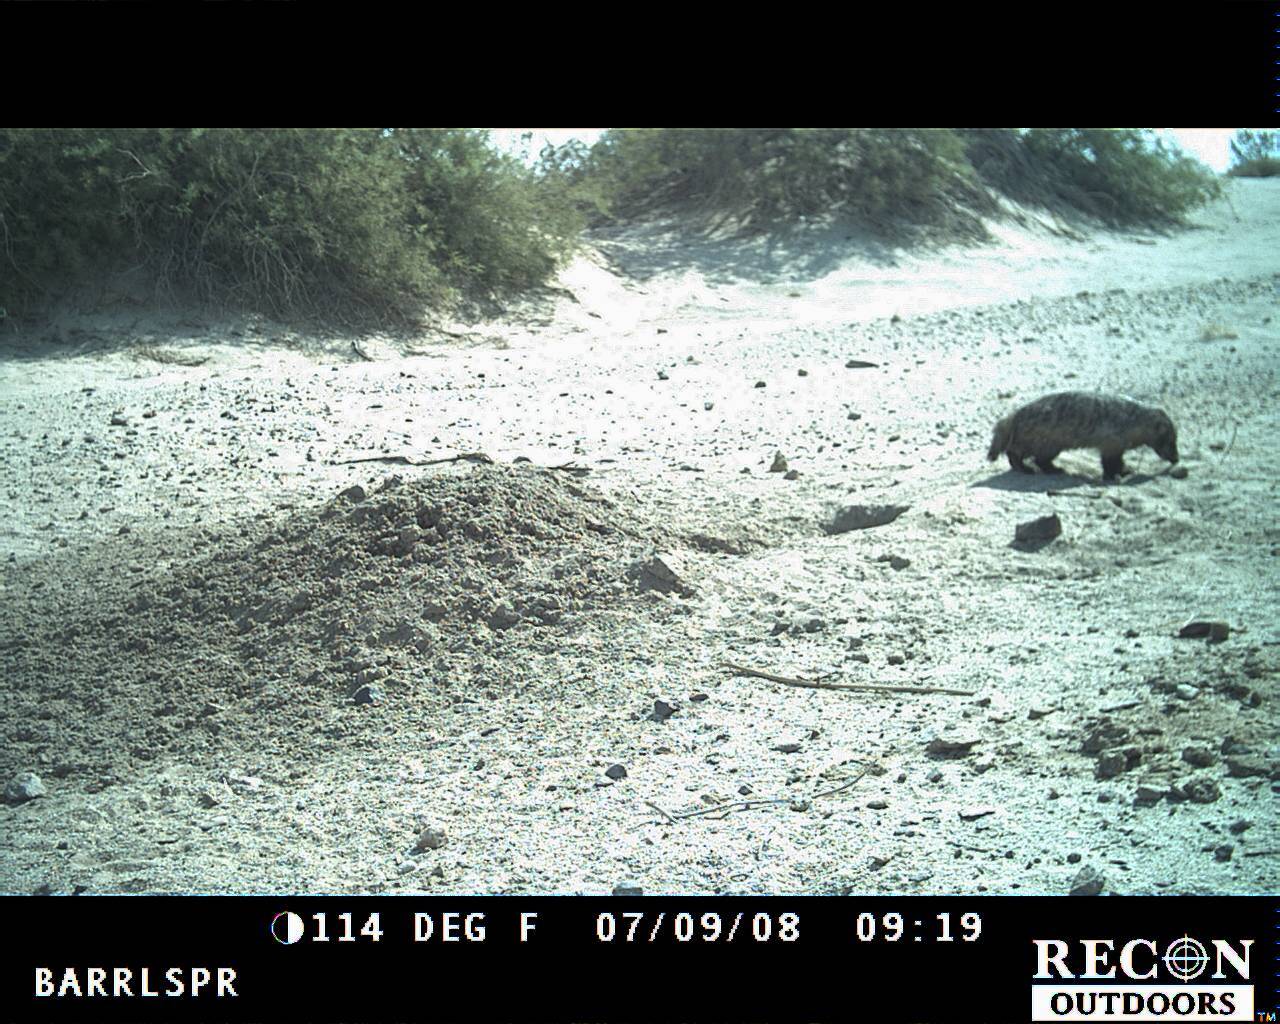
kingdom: Animalia
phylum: Chordata
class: Mammalia
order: Carnivora
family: Mustelidae
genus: Taxidea
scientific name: Taxidea taxus
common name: American badger
